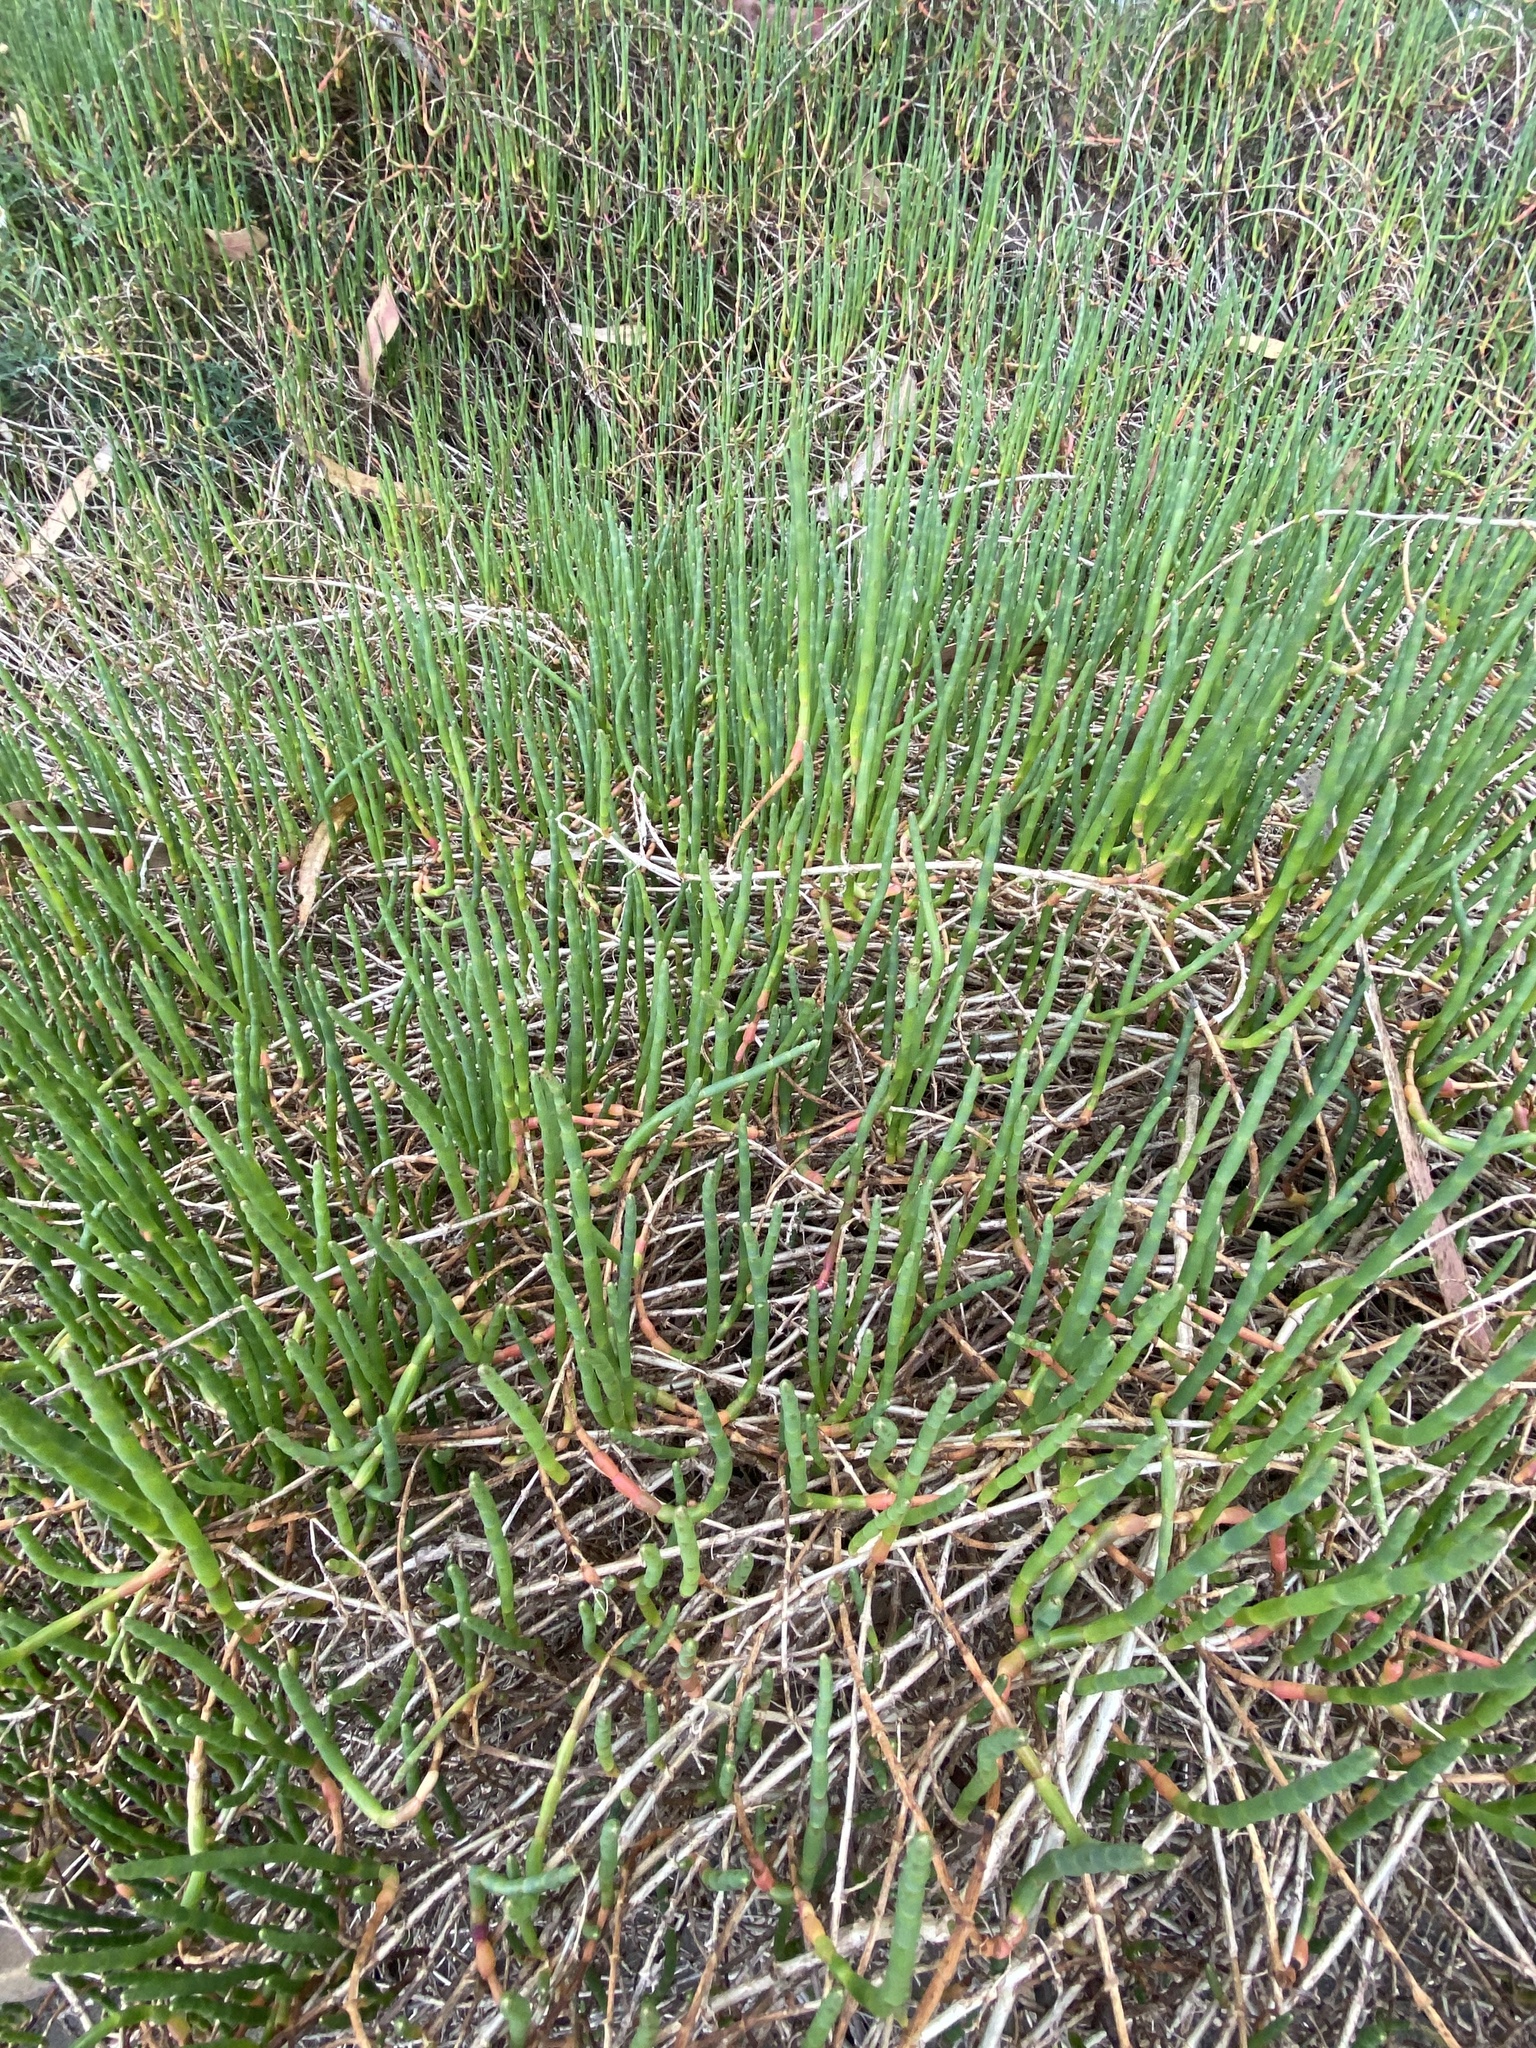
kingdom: Plantae
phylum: Tracheophyta
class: Magnoliopsida
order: Caryophyllales
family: Amaranthaceae
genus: Salicornia
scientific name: Salicornia pacifica
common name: Pacific glasswort
